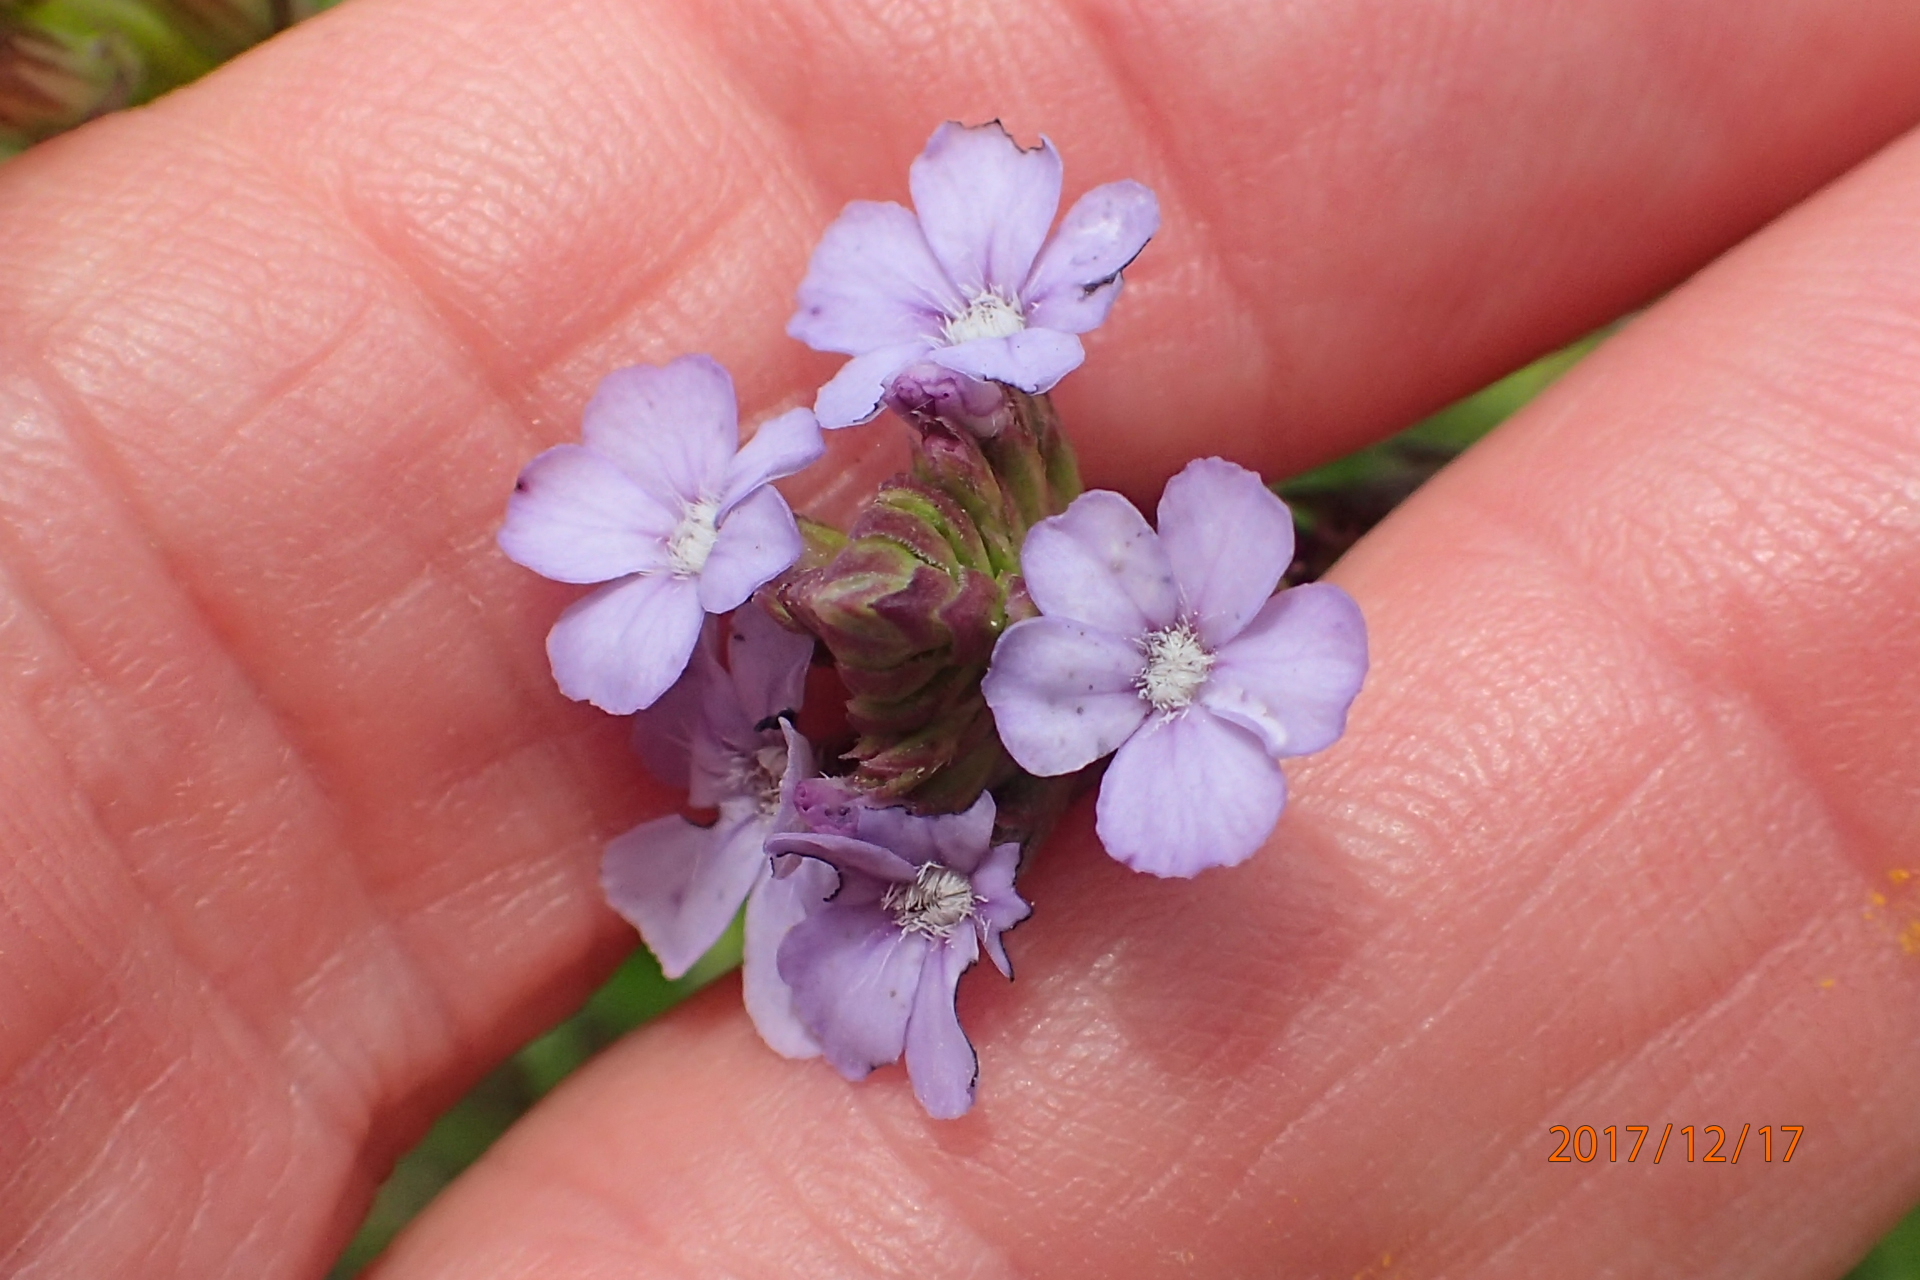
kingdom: Plantae
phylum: Tracheophyta
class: Magnoliopsida
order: Lamiales
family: Orobanchaceae
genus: Buchnera
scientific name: Buchnera simplex
